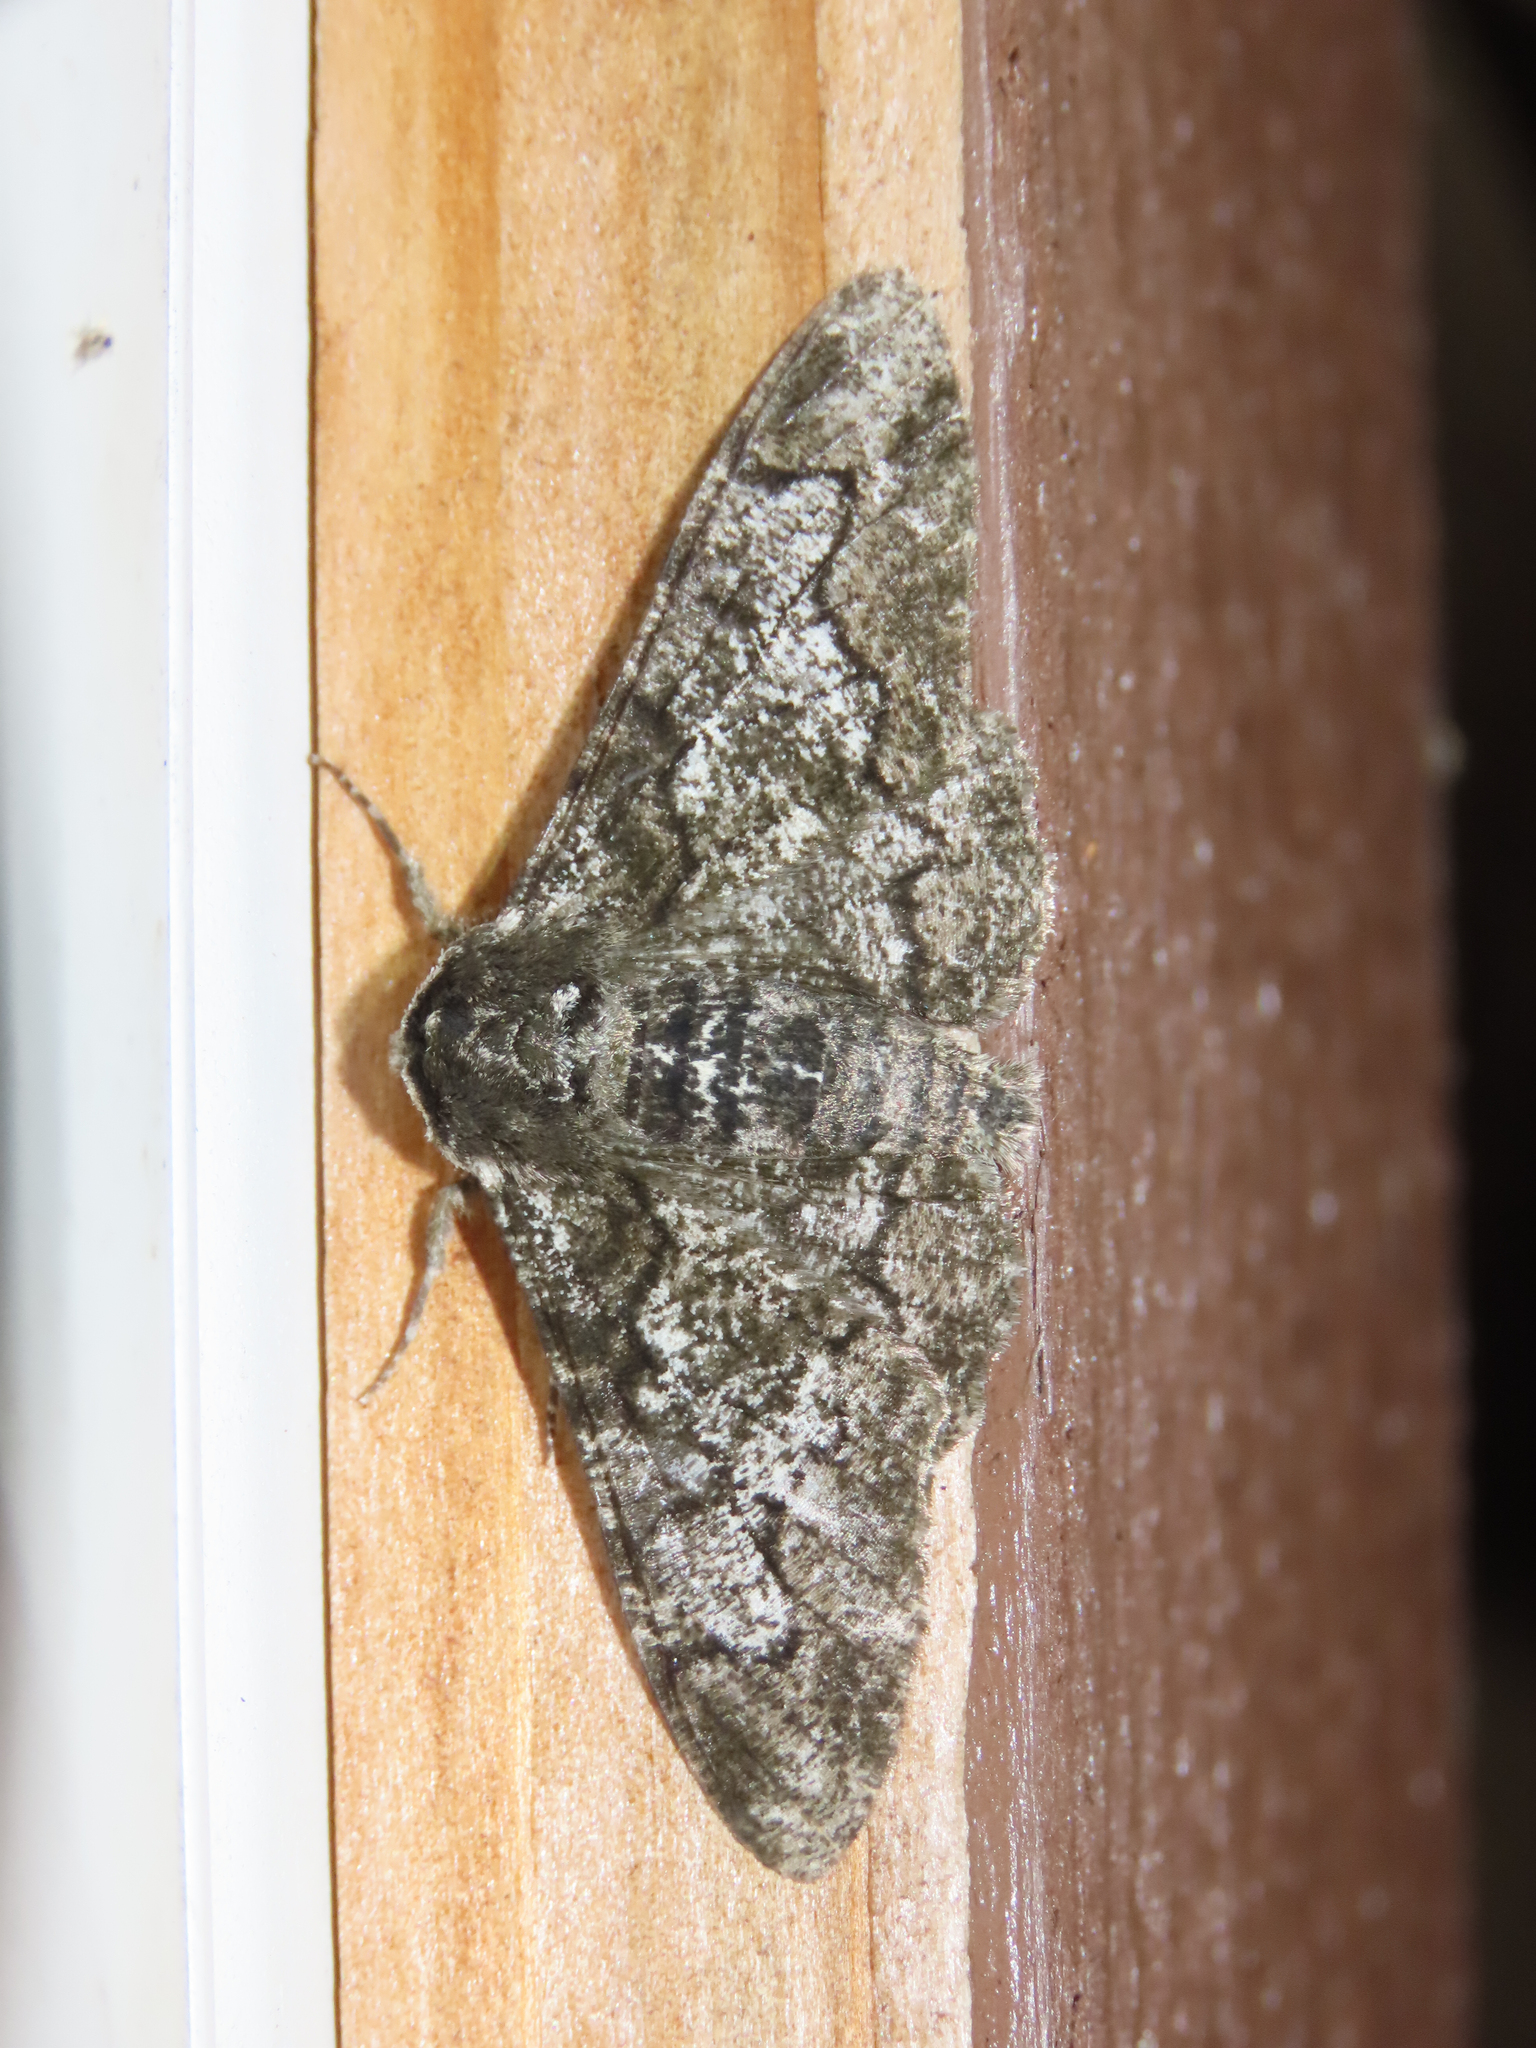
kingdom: Animalia
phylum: Arthropoda
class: Insecta
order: Lepidoptera
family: Geometridae
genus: Biston
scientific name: Biston betularia
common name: Peppered moth
